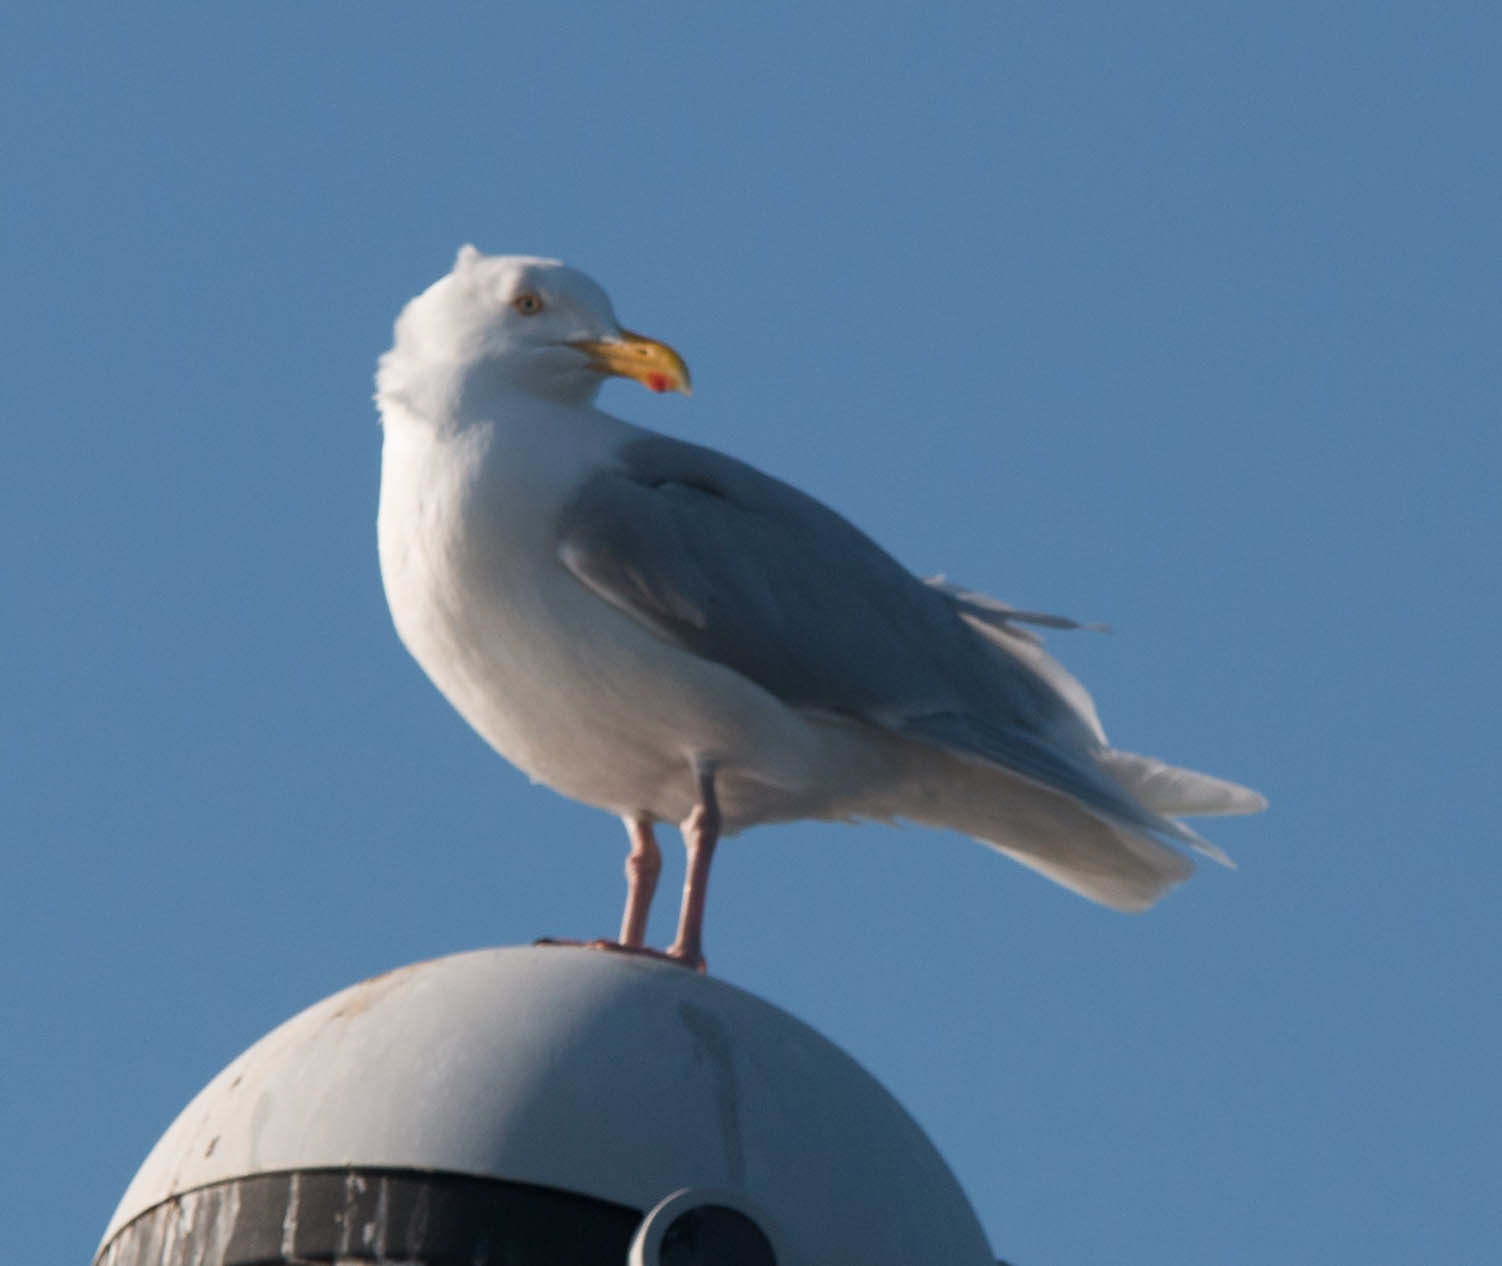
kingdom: Animalia
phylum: Chordata
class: Aves
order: Charadriiformes
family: Laridae
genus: Larus
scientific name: Larus hyperboreus
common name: Glaucous gull
